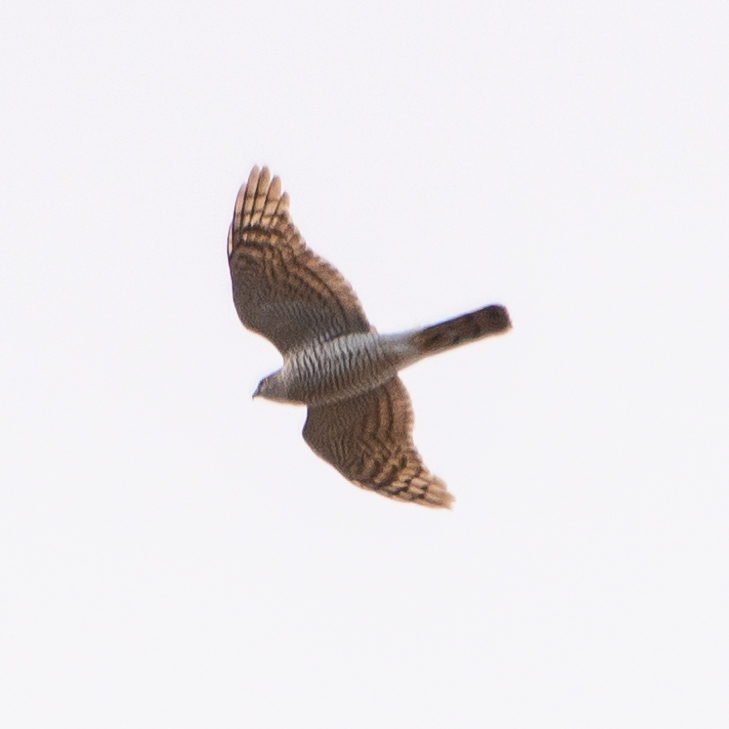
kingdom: Animalia
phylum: Chordata
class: Aves
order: Accipitriformes
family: Accipitridae
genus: Accipiter
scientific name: Accipiter nisus
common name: Eurasian sparrowhawk
